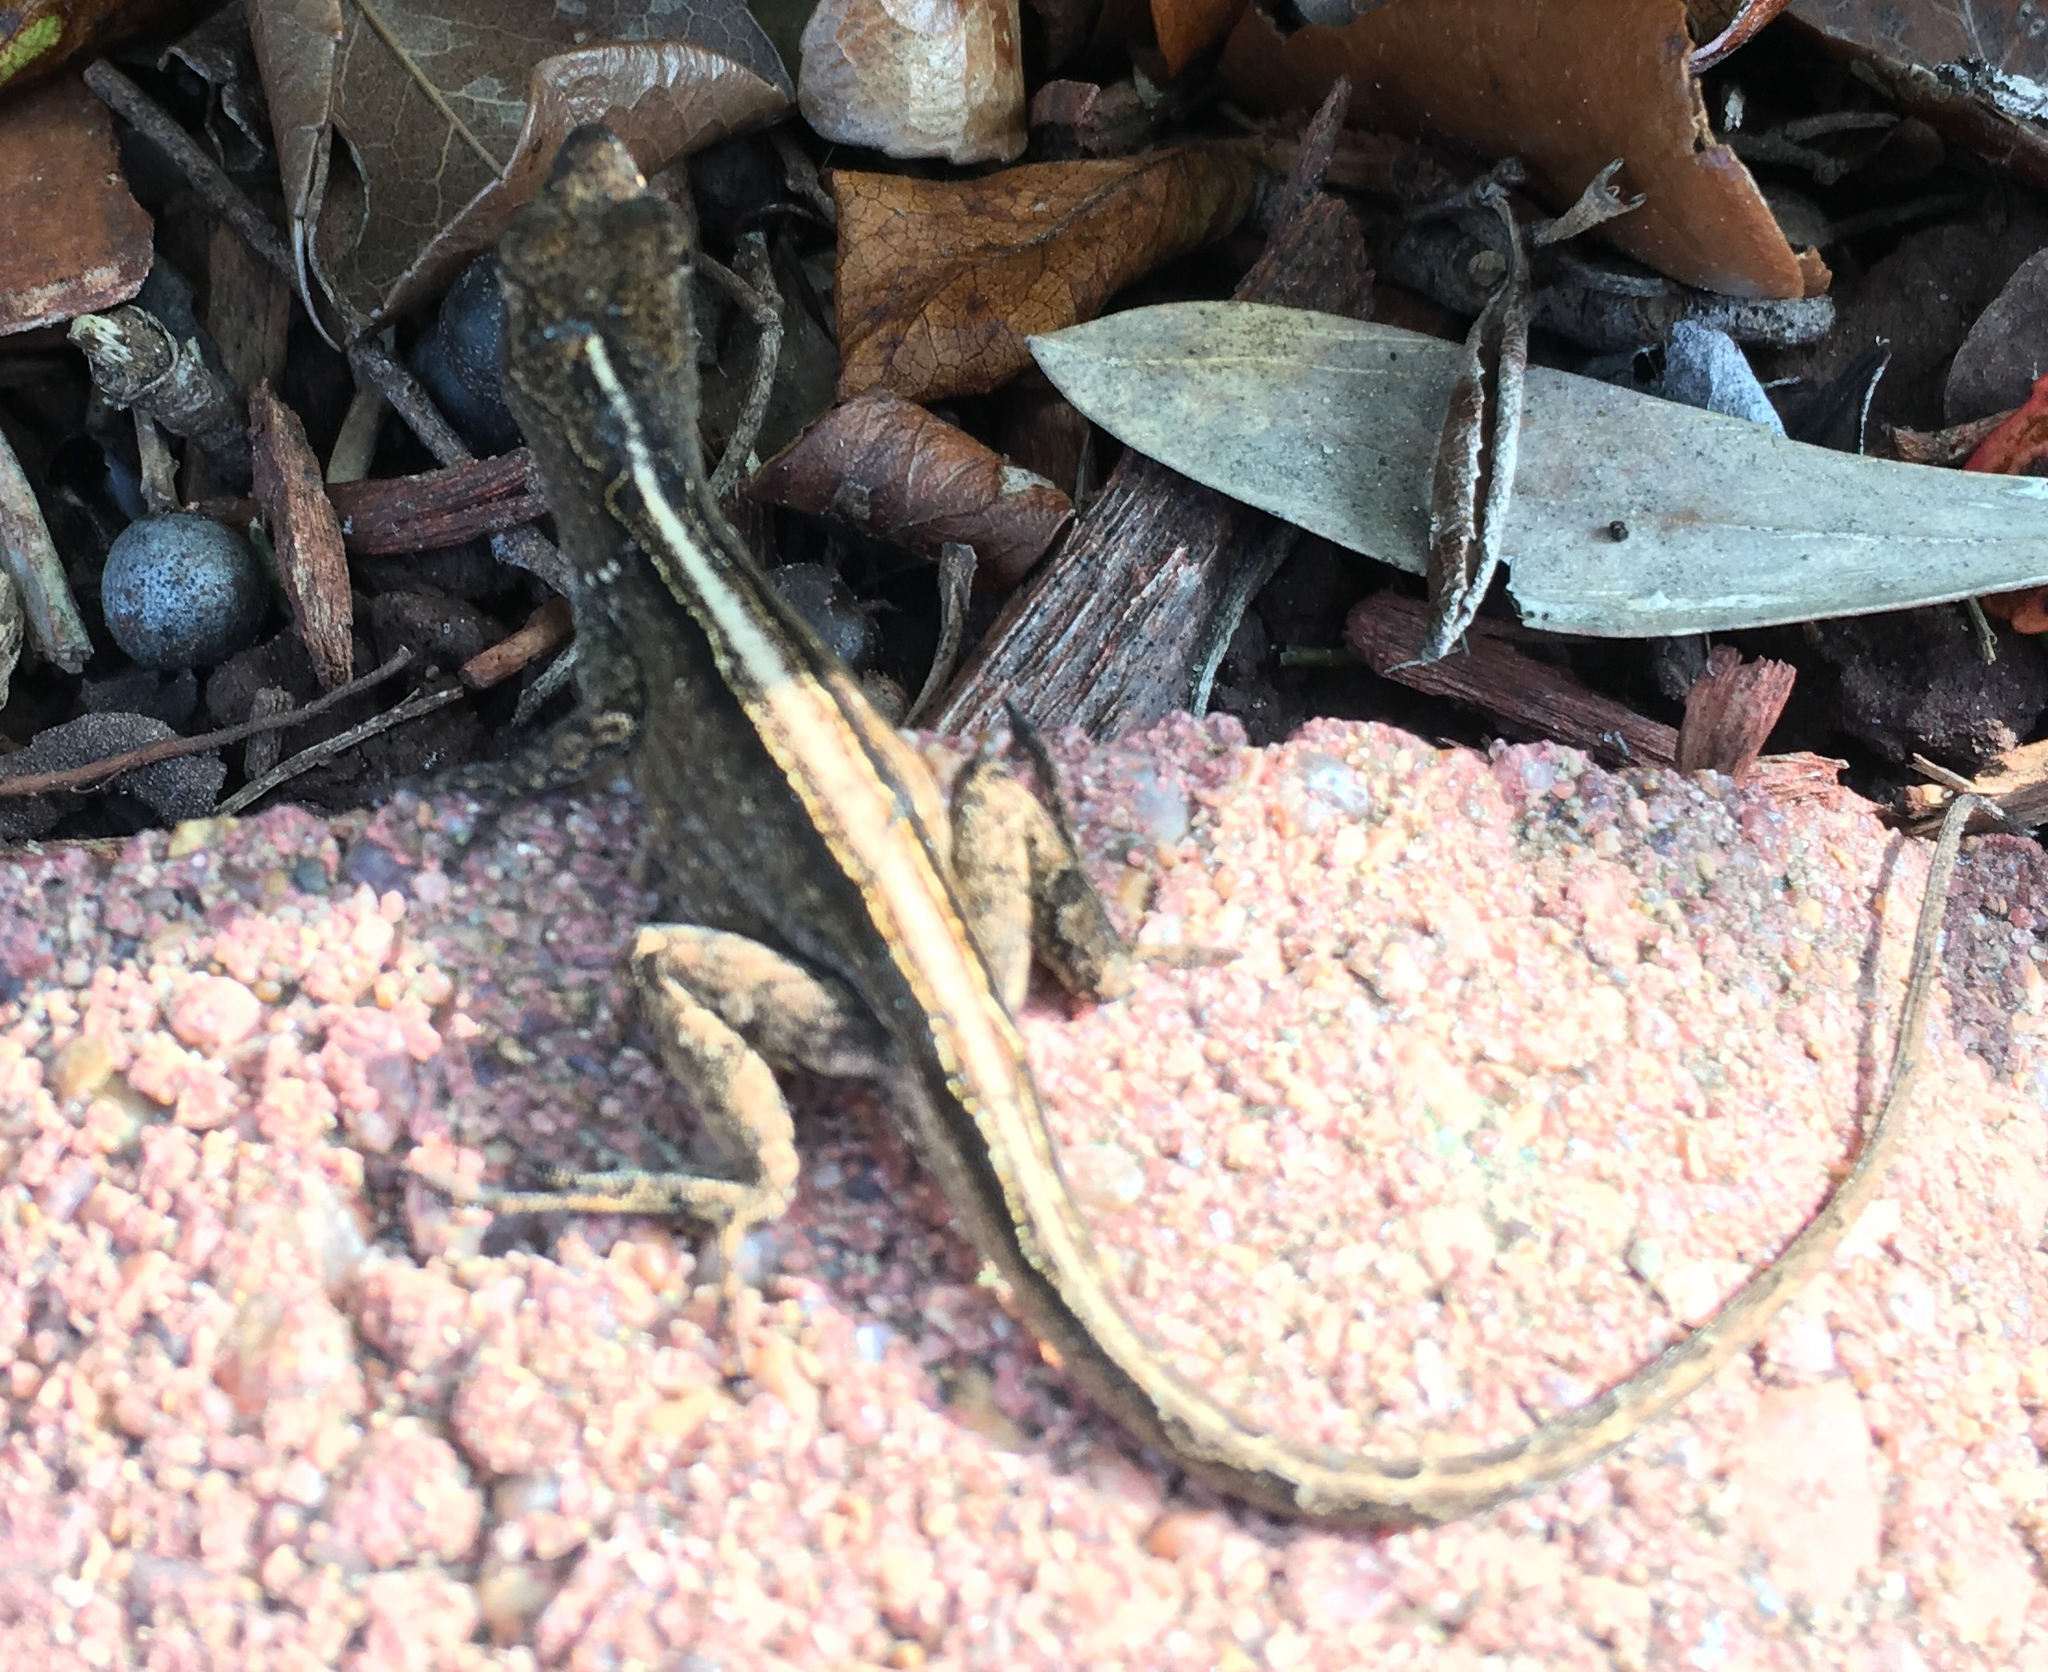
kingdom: Animalia
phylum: Chordata
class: Squamata
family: Dactyloidae
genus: Anolis
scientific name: Anolis sagrei
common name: Brown anole
